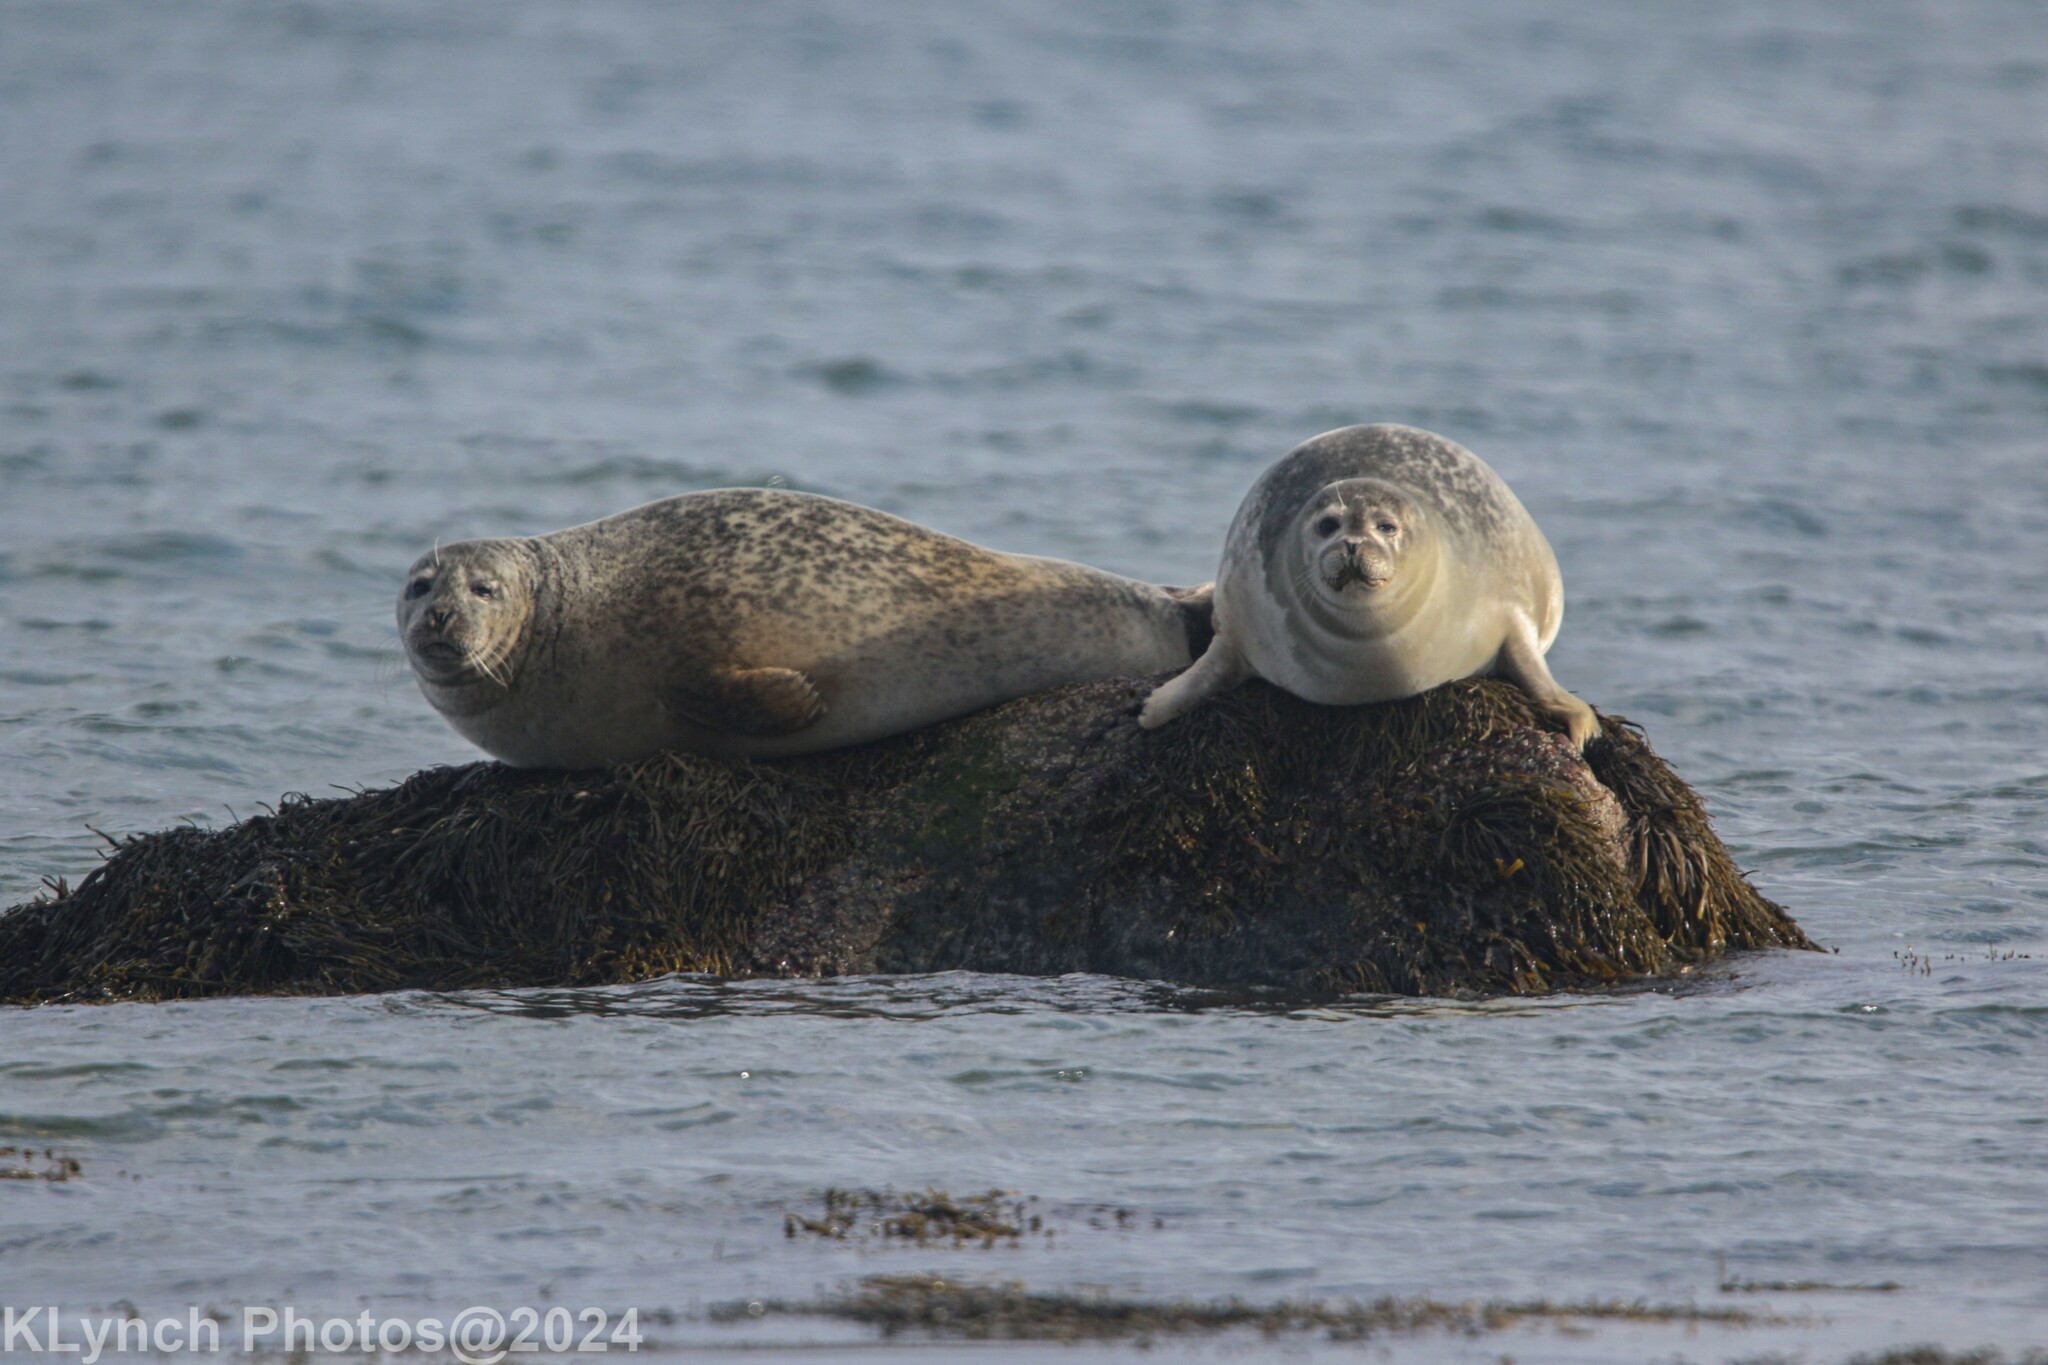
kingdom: Animalia
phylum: Chordata
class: Mammalia
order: Carnivora
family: Phocidae
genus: Phoca
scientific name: Phoca vitulina
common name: Harbor seal
